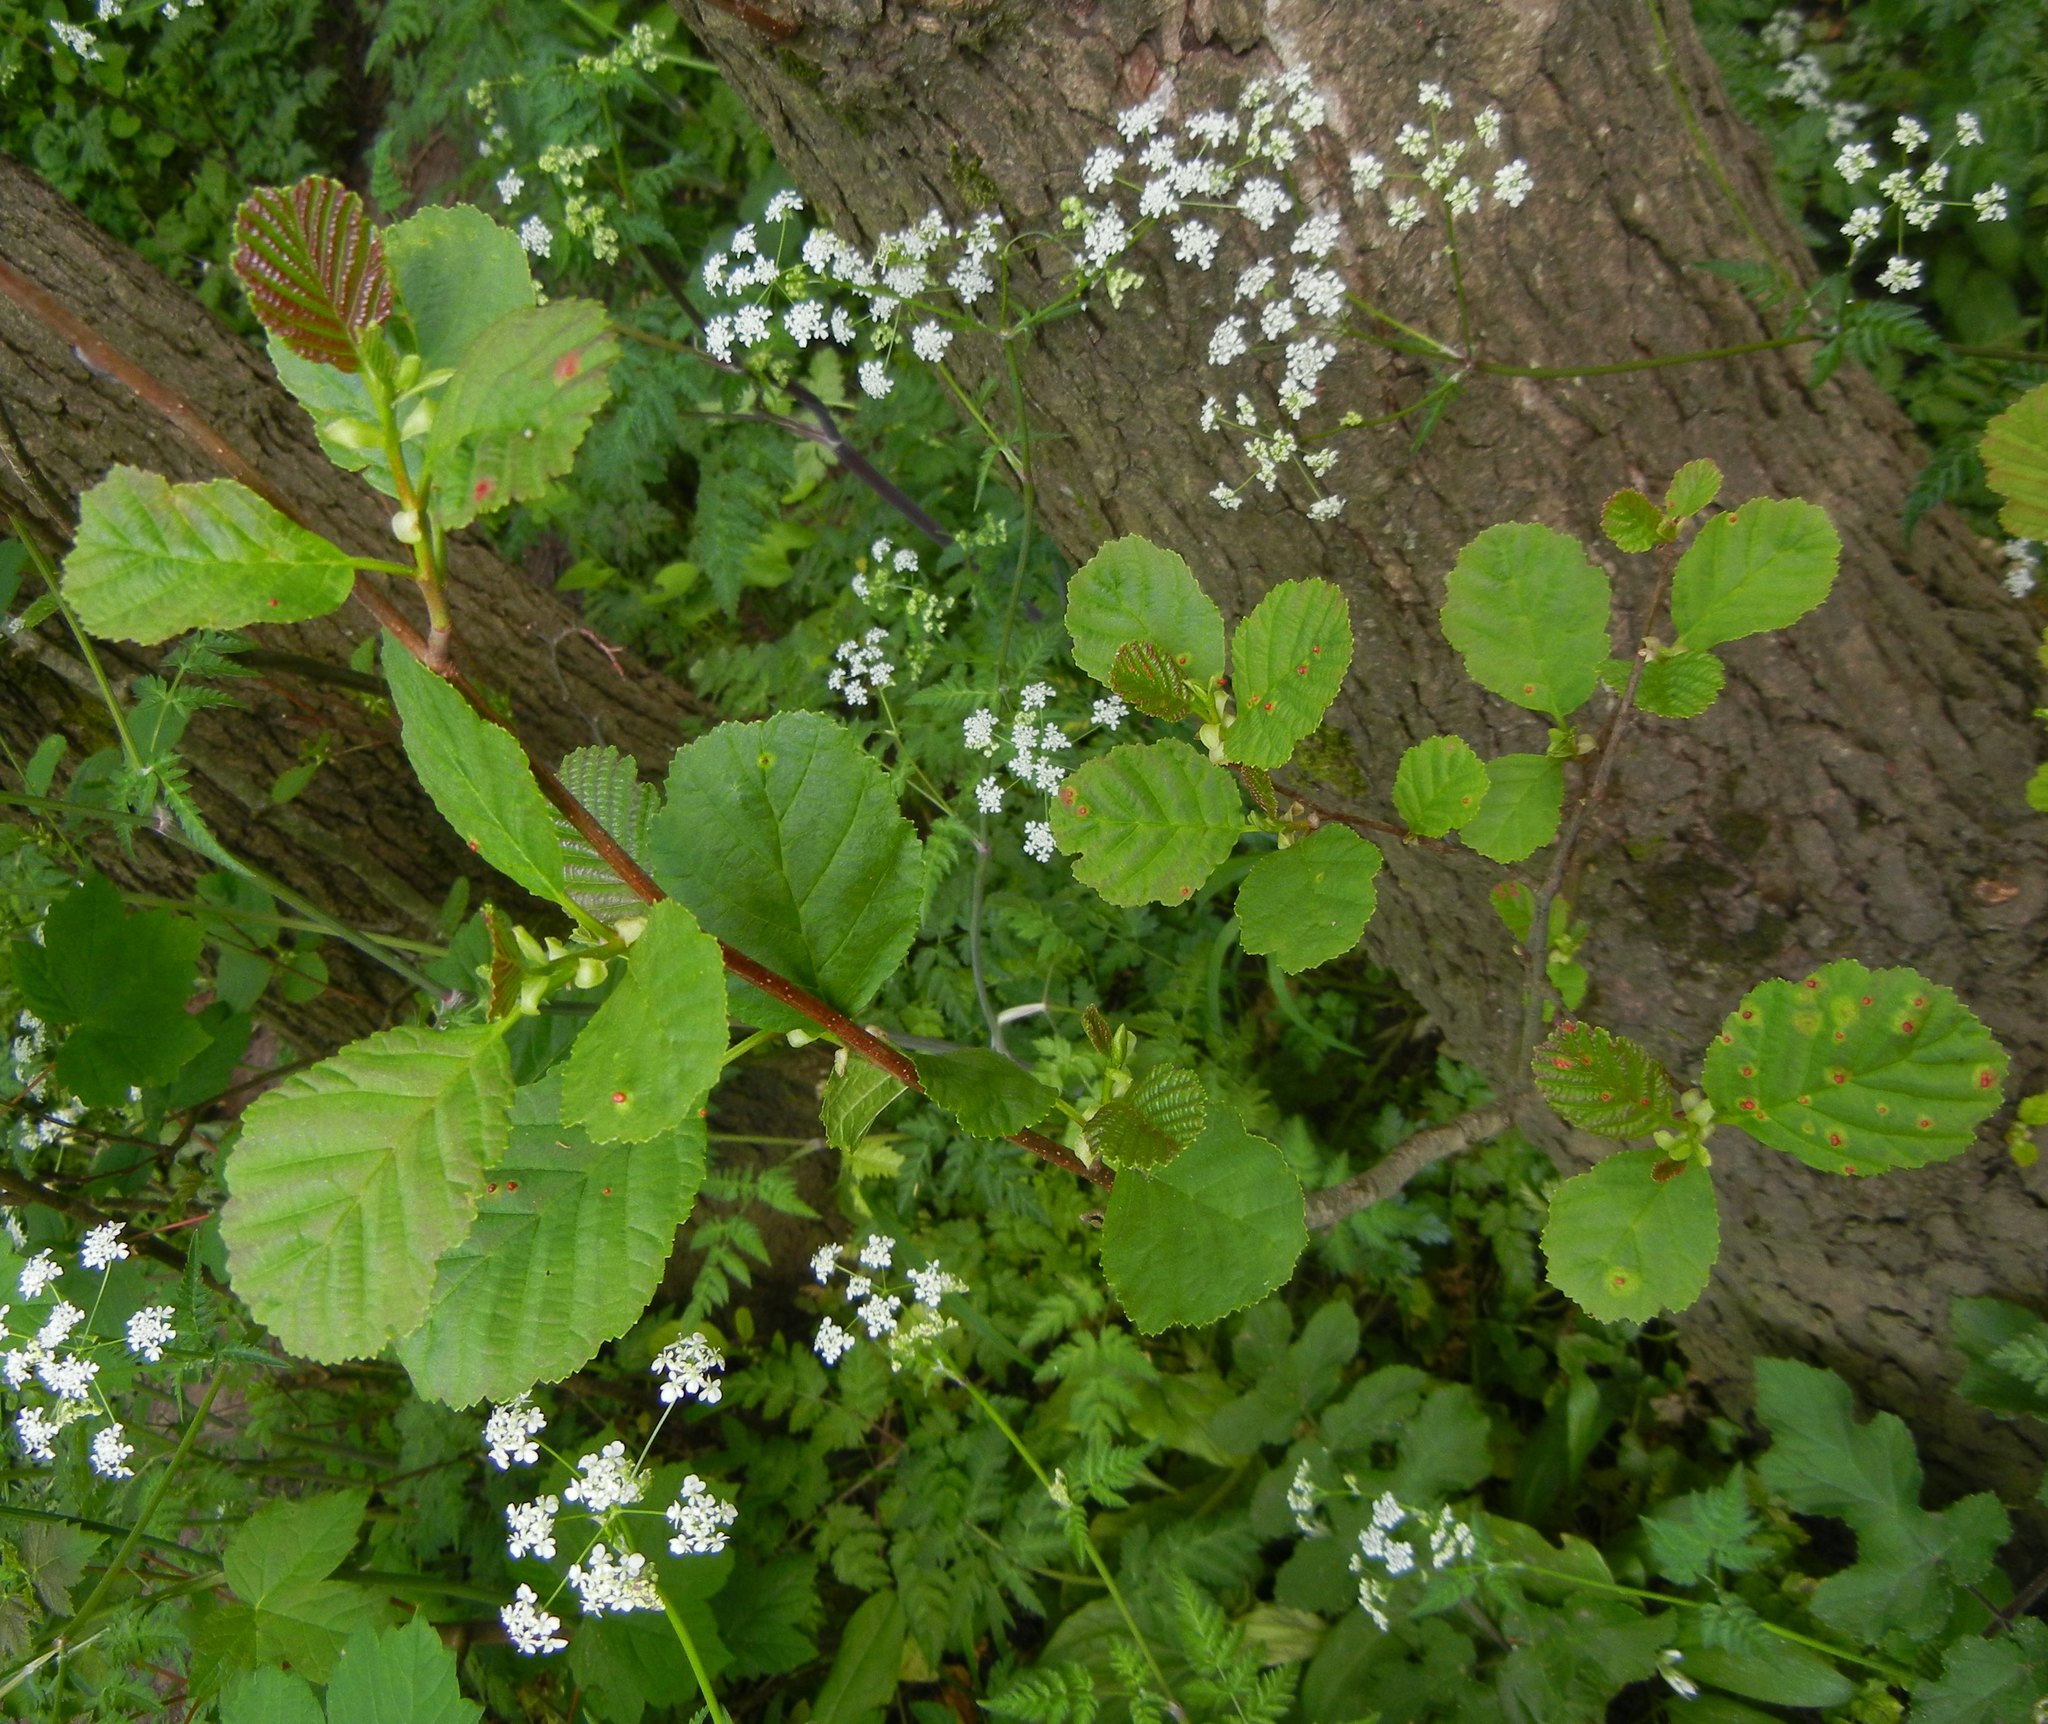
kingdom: Plantae
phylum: Tracheophyta
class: Magnoliopsida
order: Fagales
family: Betulaceae
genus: Alnus
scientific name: Alnus glutinosa
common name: Black alder
